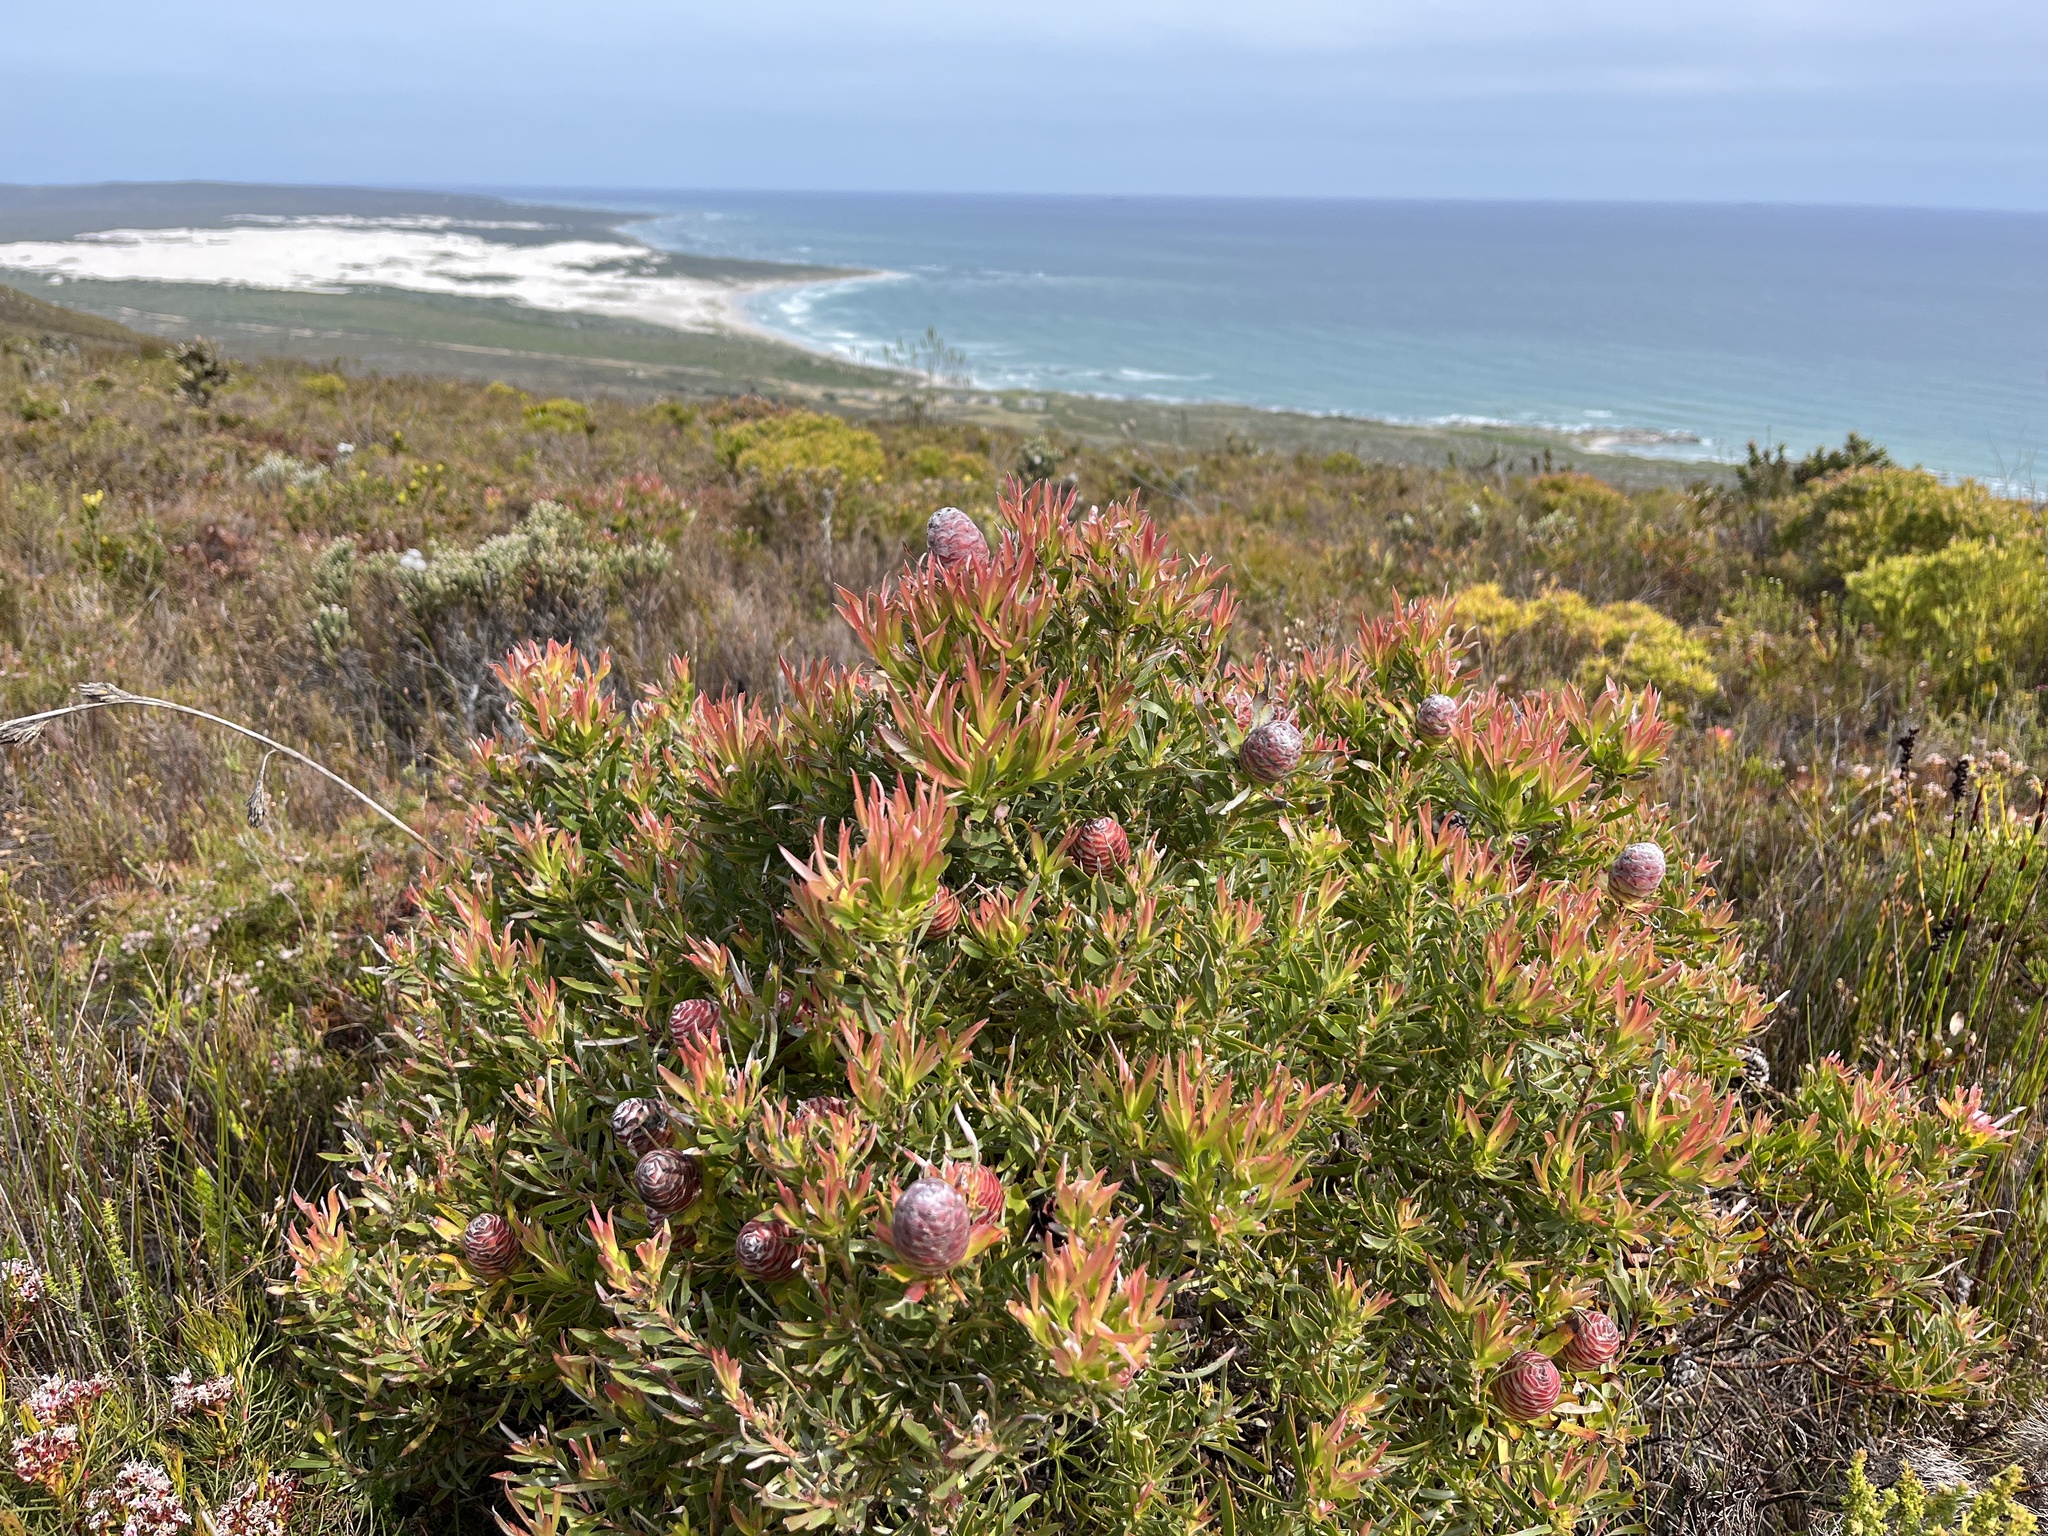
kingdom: Plantae
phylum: Tracheophyta
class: Magnoliopsida
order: Proteales
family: Proteaceae
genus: Leucadendron
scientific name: Leucadendron xanthoconus
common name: Sickle-leaf conebush
